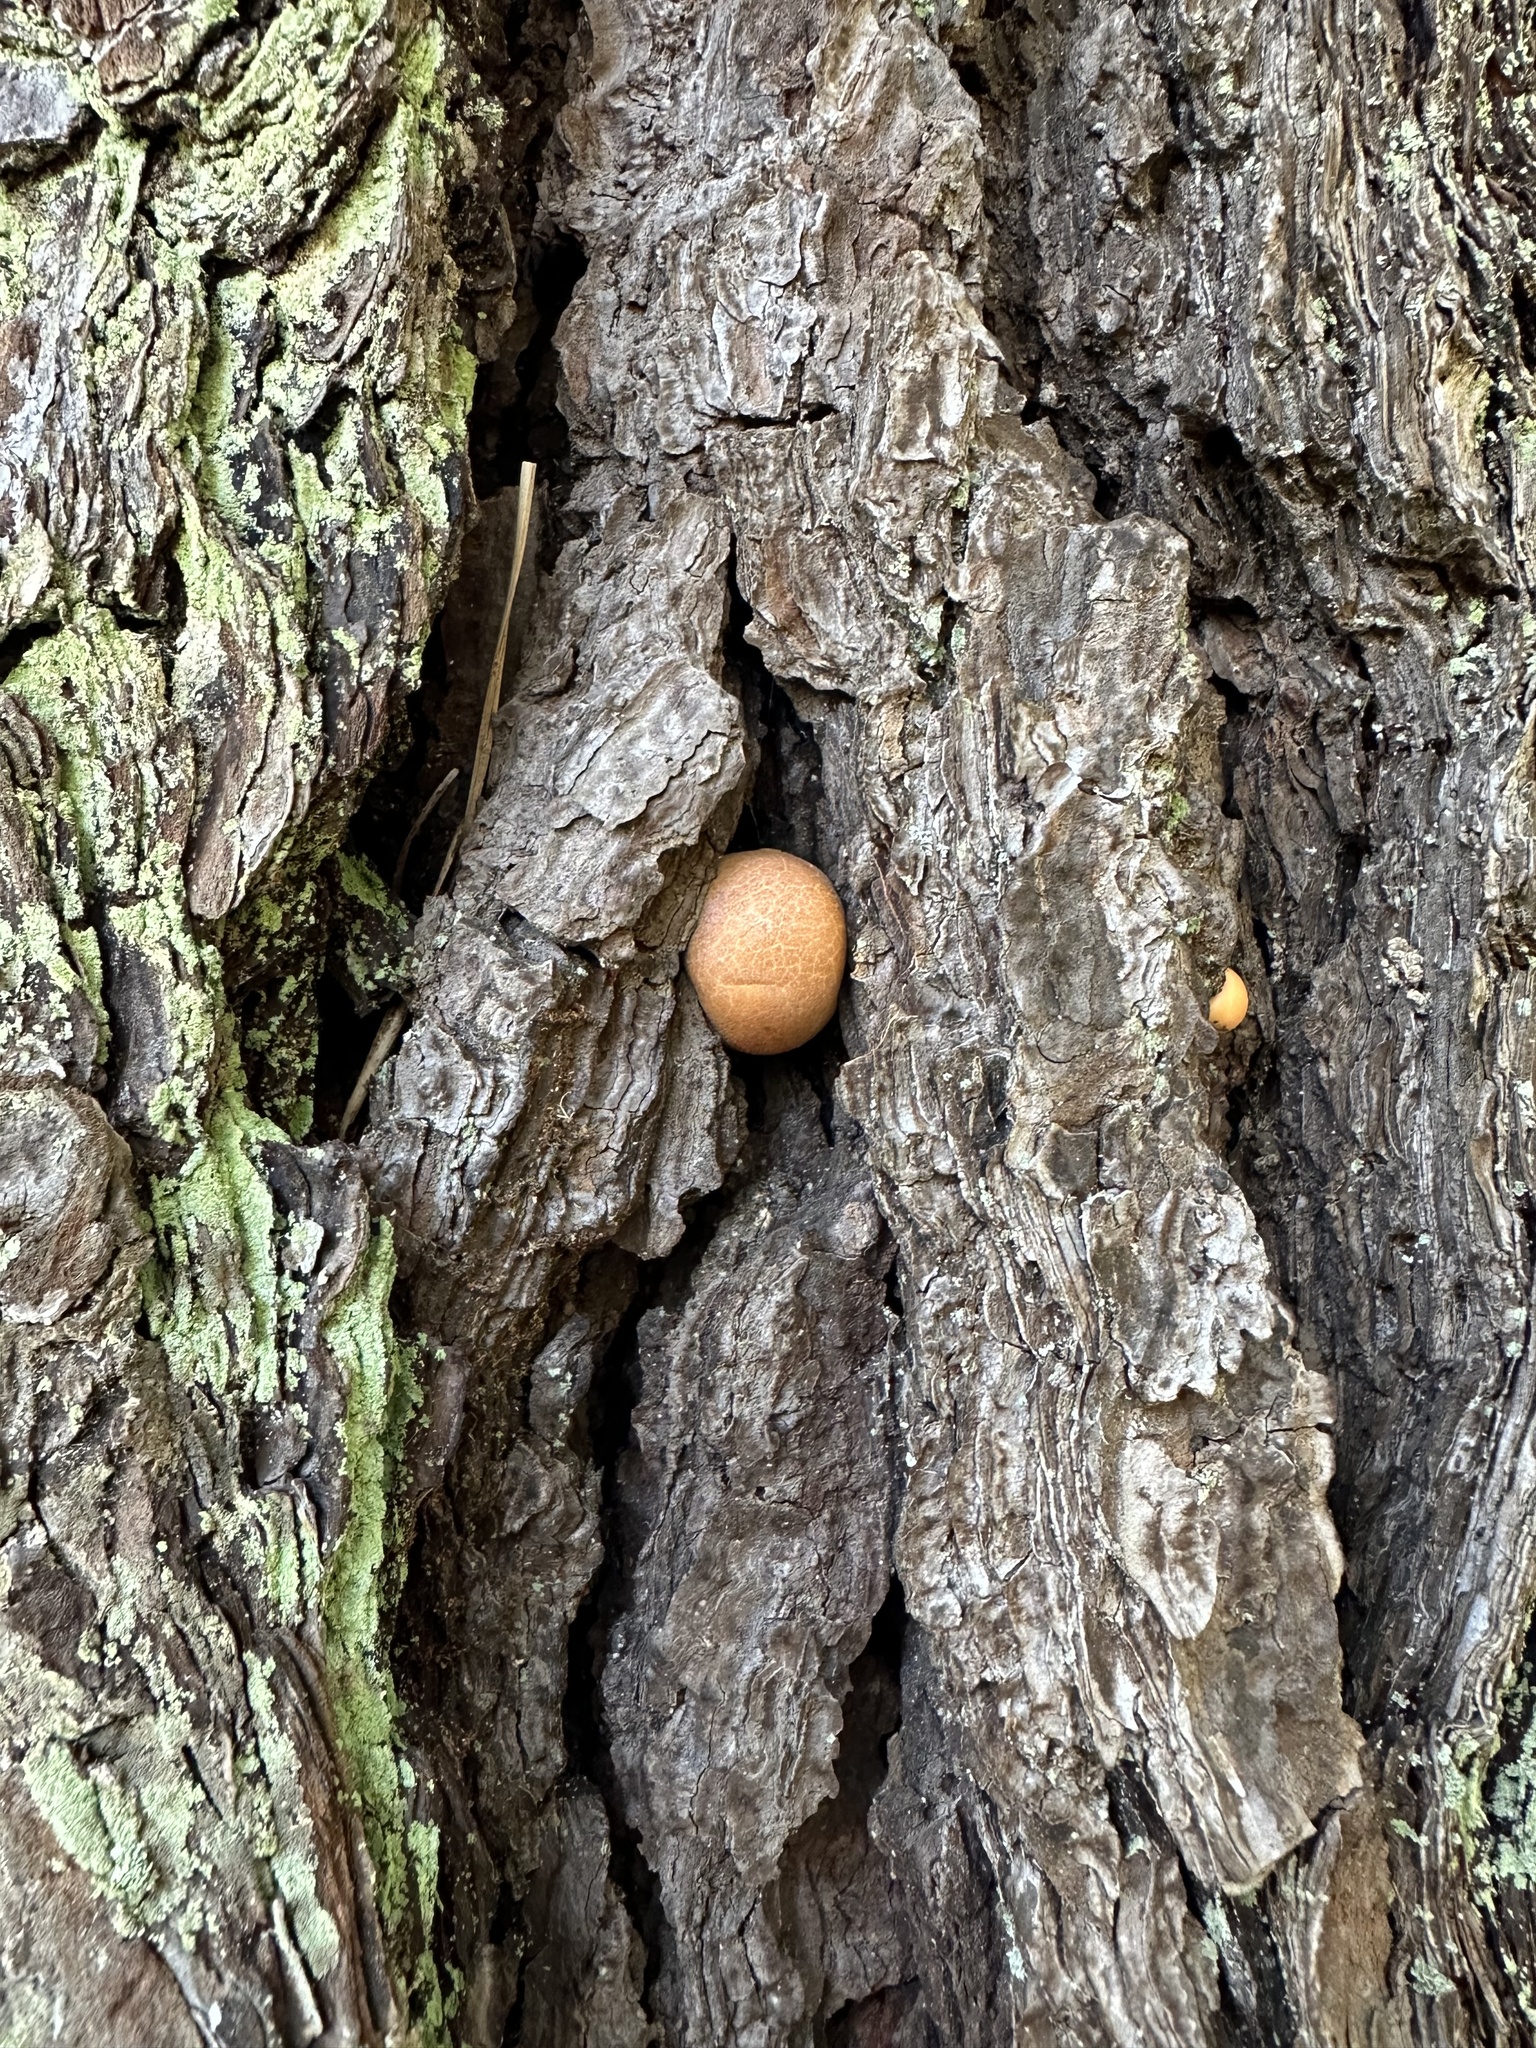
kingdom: Fungi
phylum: Basidiomycota
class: Agaricomycetes
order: Polyporales
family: Polyporaceae
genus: Cryptoporus
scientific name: Cryptoporus volvatus
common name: Veiled polypore
